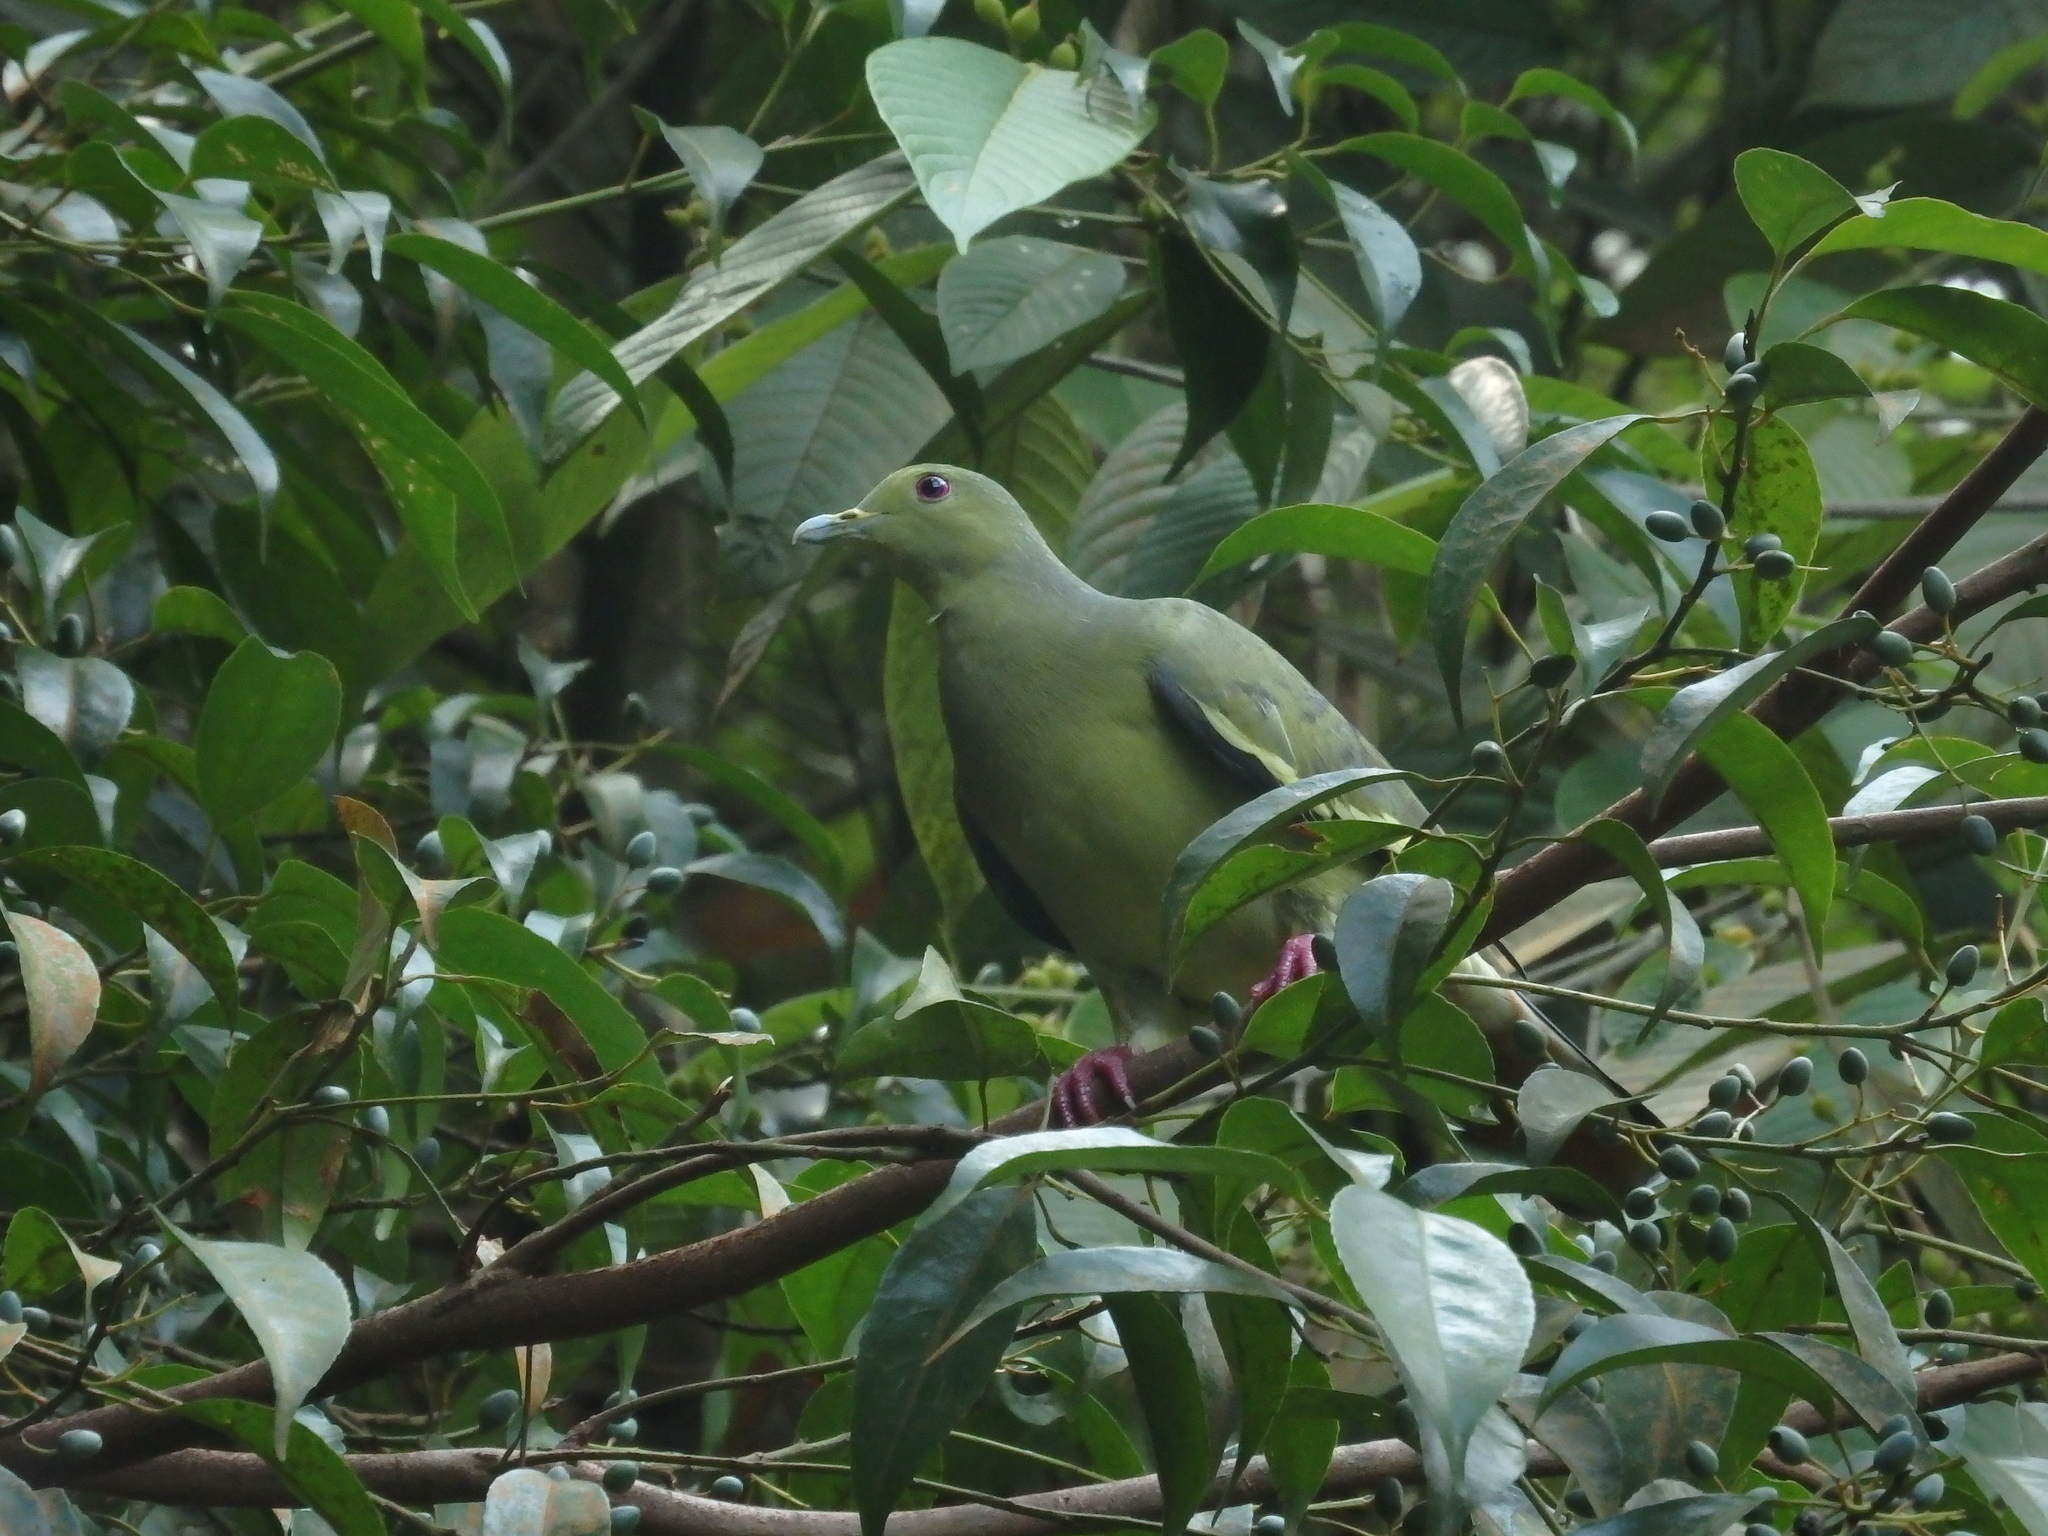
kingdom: Animalia
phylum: Chordata
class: Aves
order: Columbiformes
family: Columbidae
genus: Treron
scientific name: Treron vernans
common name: Pink-necked green pigeon
